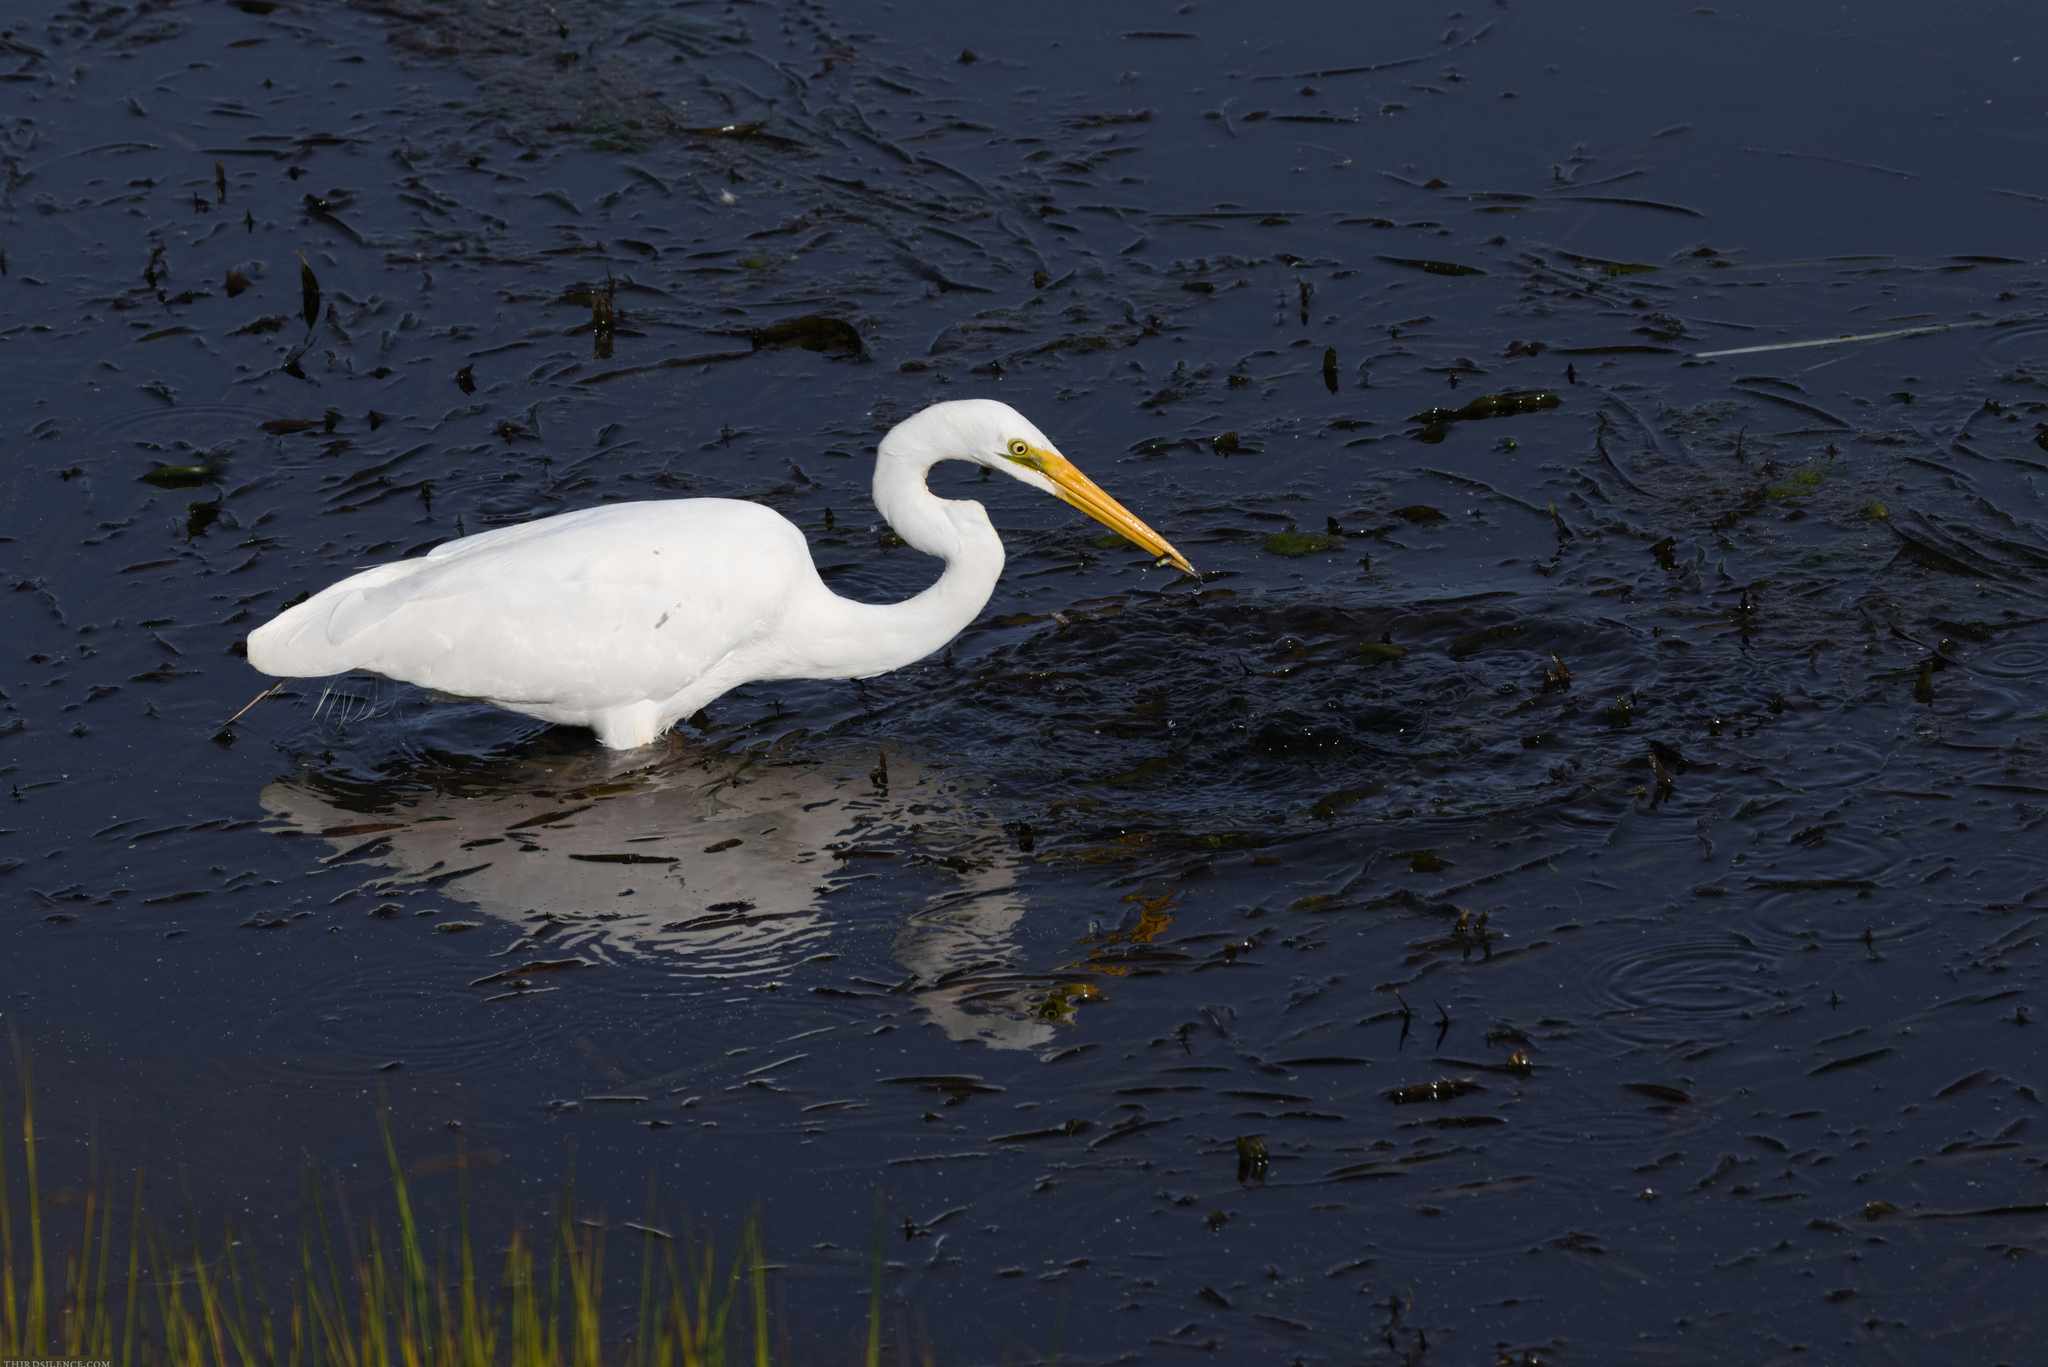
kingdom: Animalia
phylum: Chordata
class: Aves
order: Pelecaniformes
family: Ardeidae
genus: Ardea
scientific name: Ardea alba
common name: Great egret
